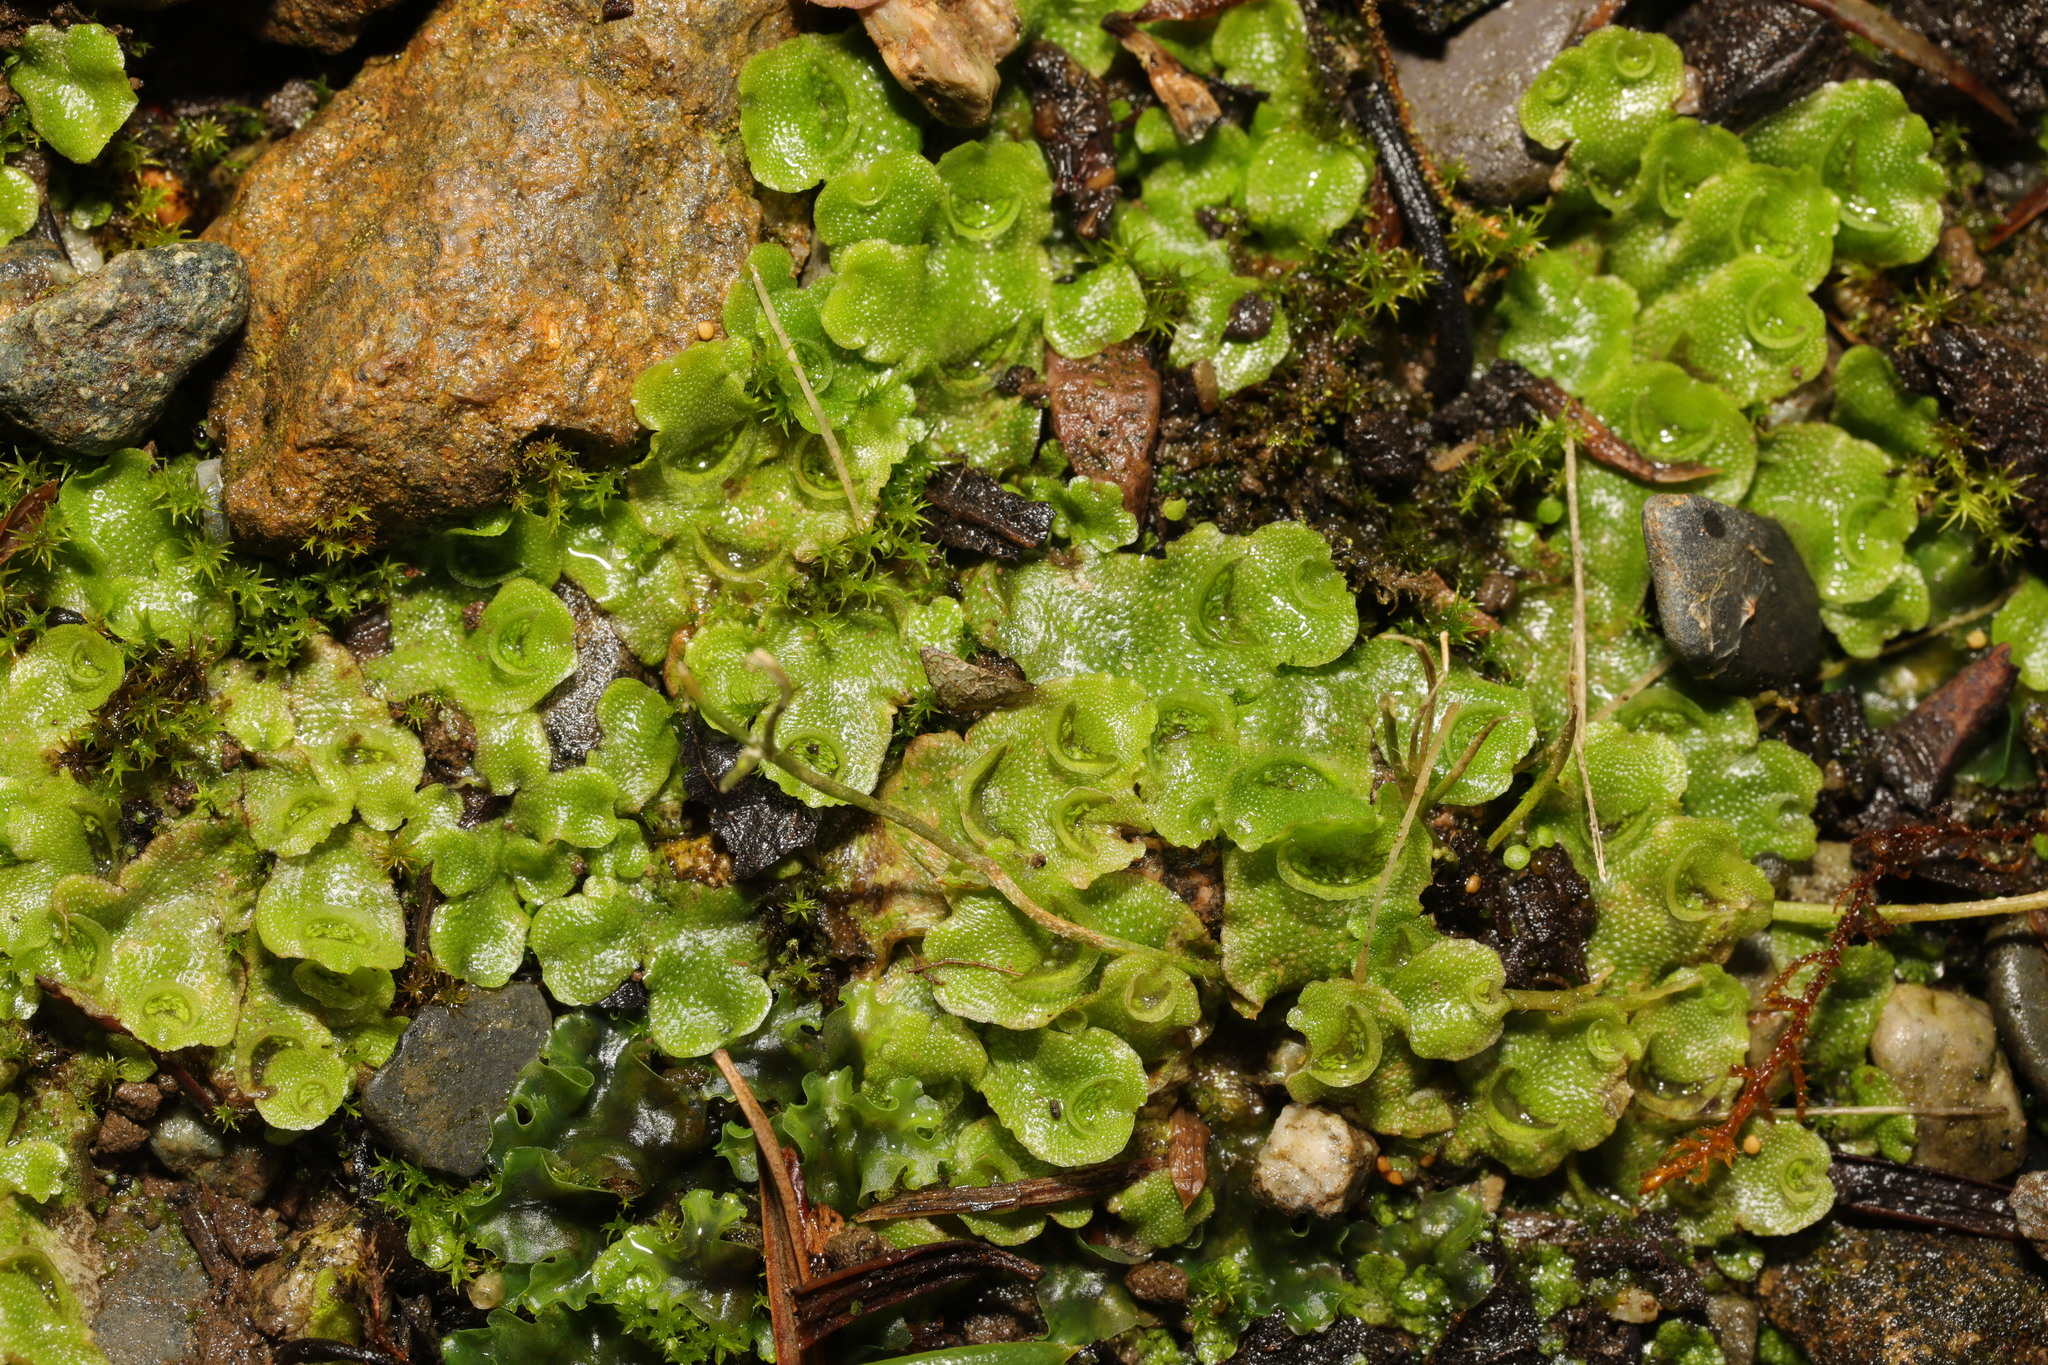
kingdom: Plantae
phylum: Marchantiophyta
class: Marchantiopsida
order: Lunulariales
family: Lunulariaceae
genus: Lunularia
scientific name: Lunularia cruciata
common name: Crescent-cup liverwort
